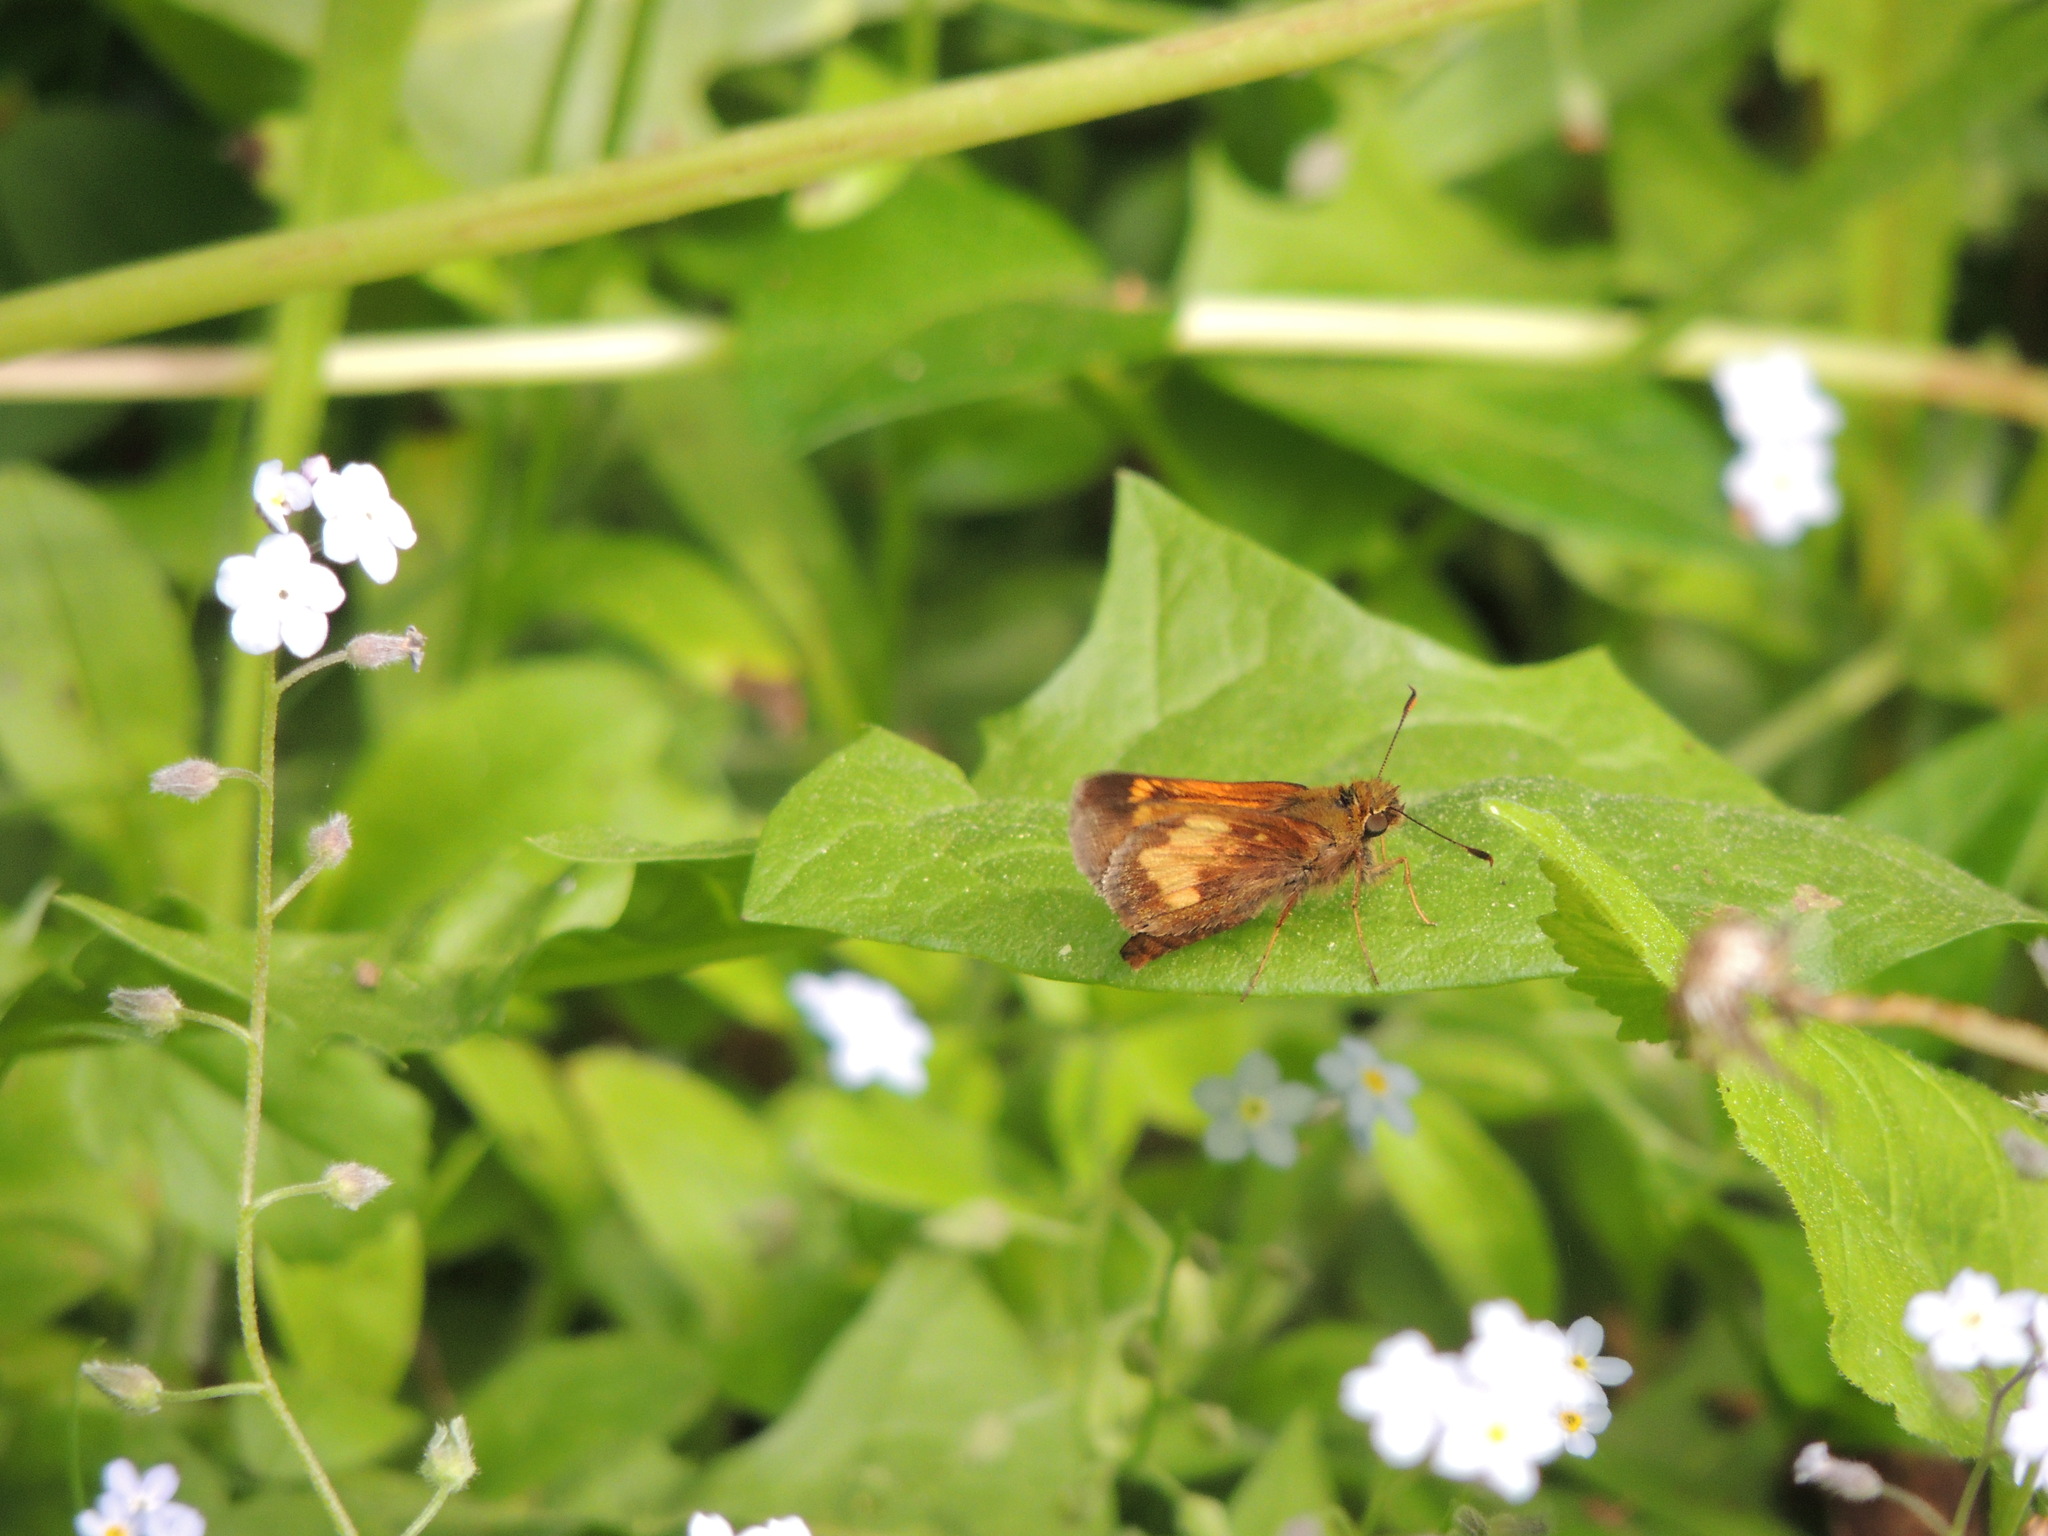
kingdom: Animalia
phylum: Arthropoda
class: Insecta
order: Lepidoptera
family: Hesperiidae
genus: Lon
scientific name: Lon hobomok
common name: Hobomok skipper
